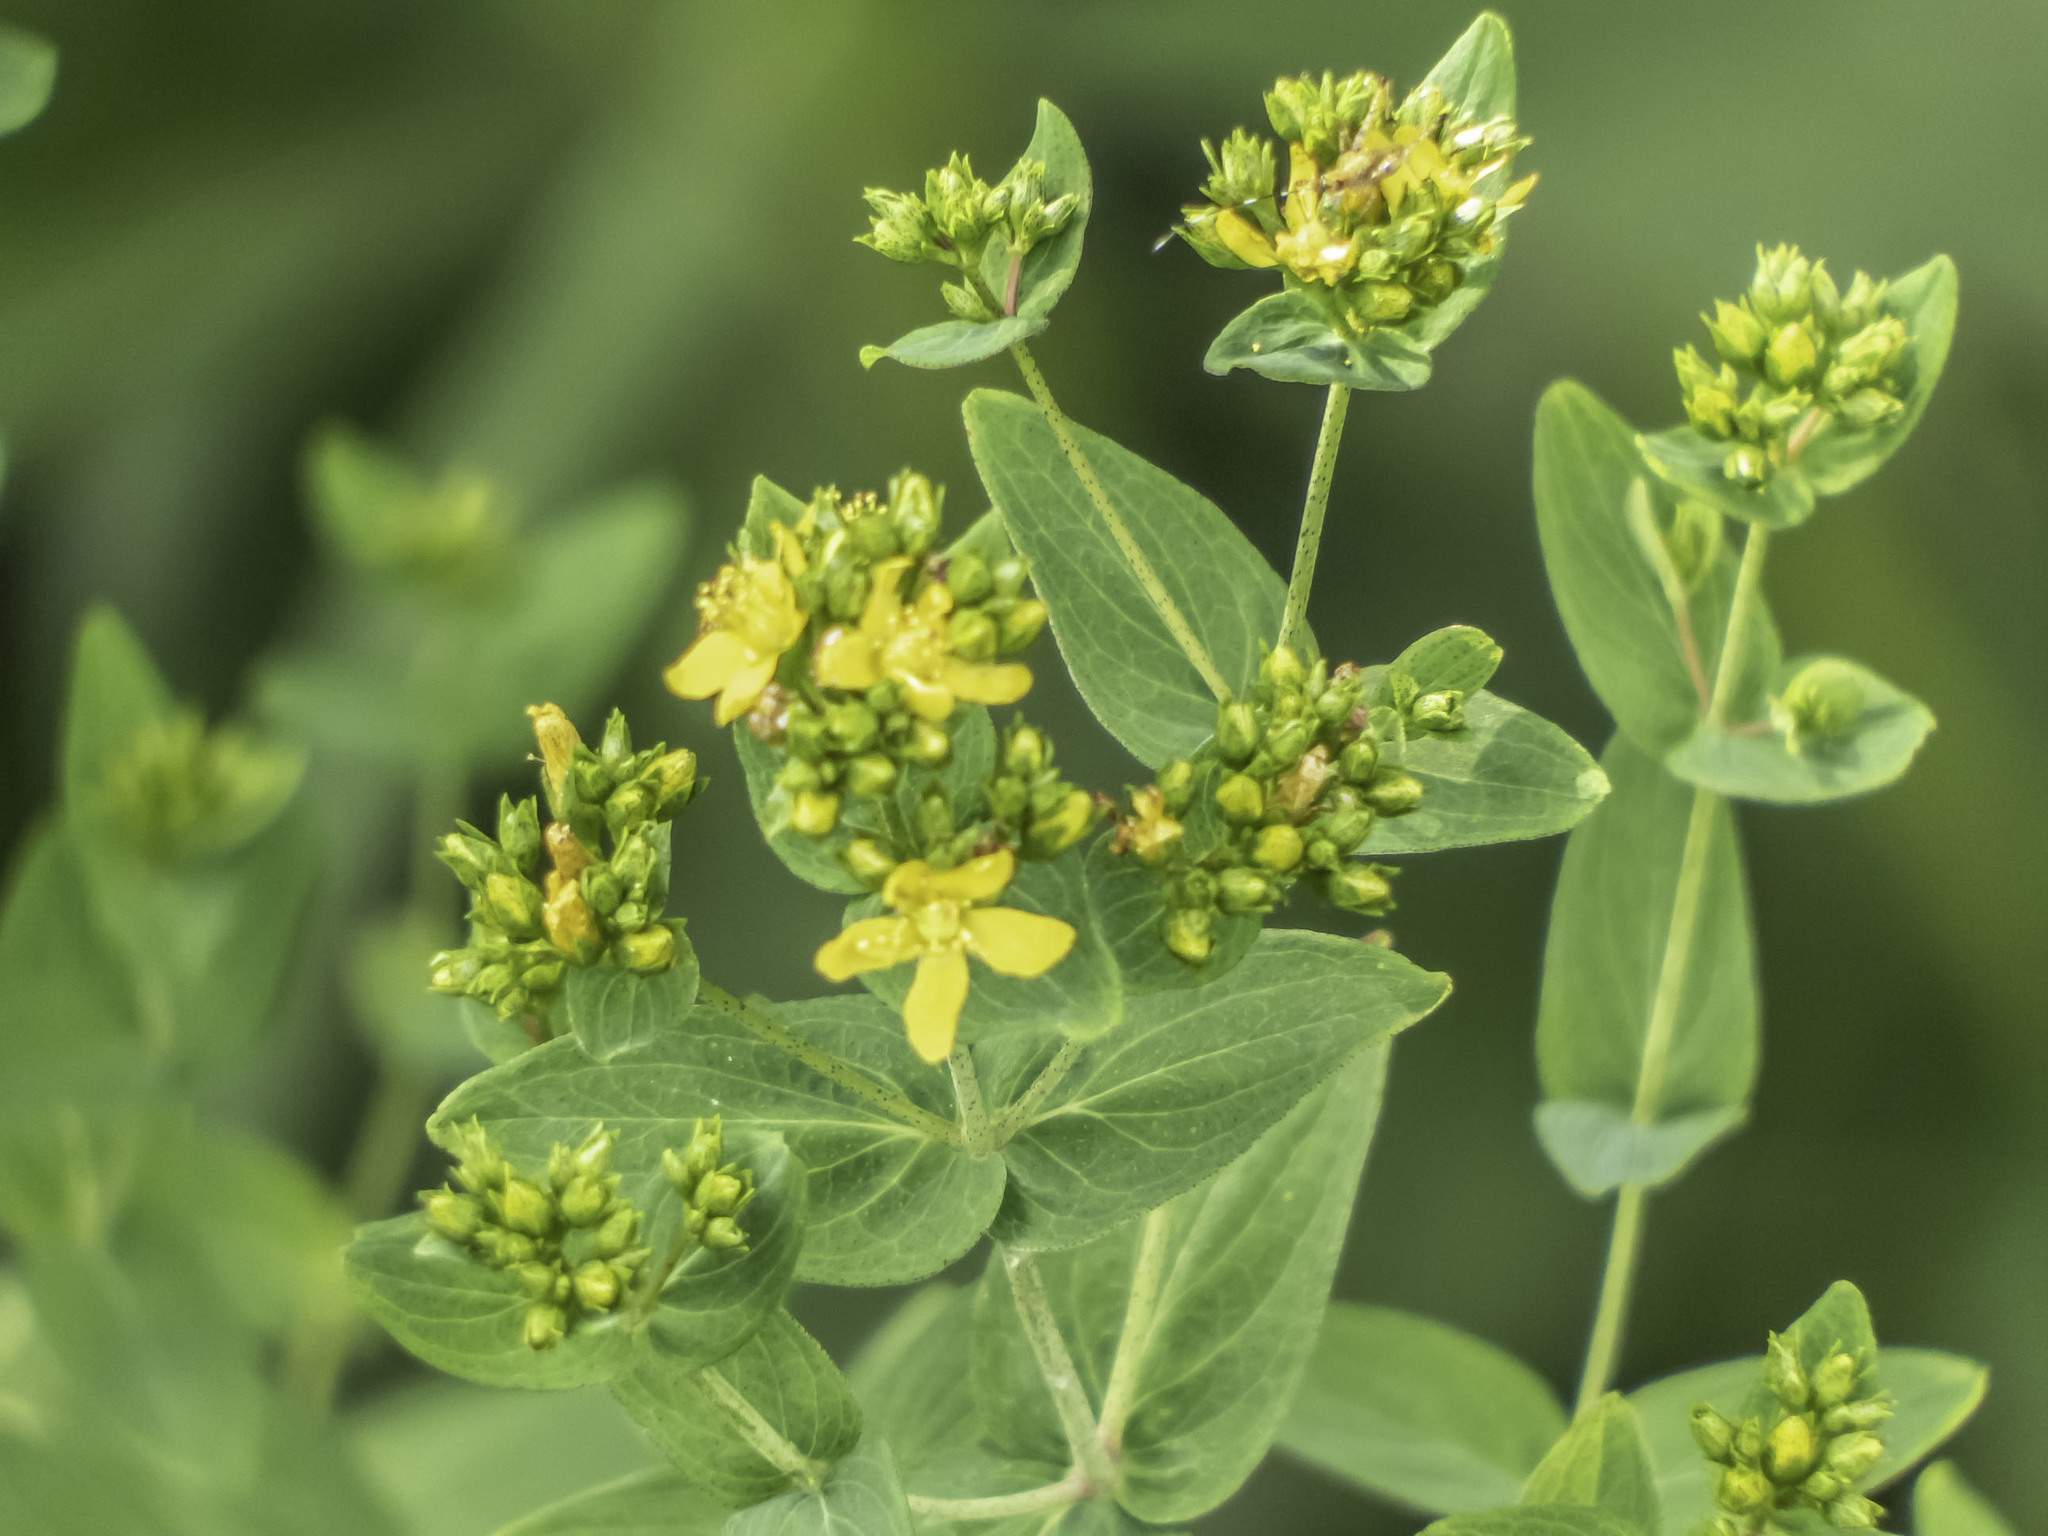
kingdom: Plantae
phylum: Tracheophyta
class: Magnoliopsida
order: Malpighiales
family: Hypericaceae
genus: Hypericum
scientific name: Hypericum punctatum
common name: Spotted st. john's-wort
